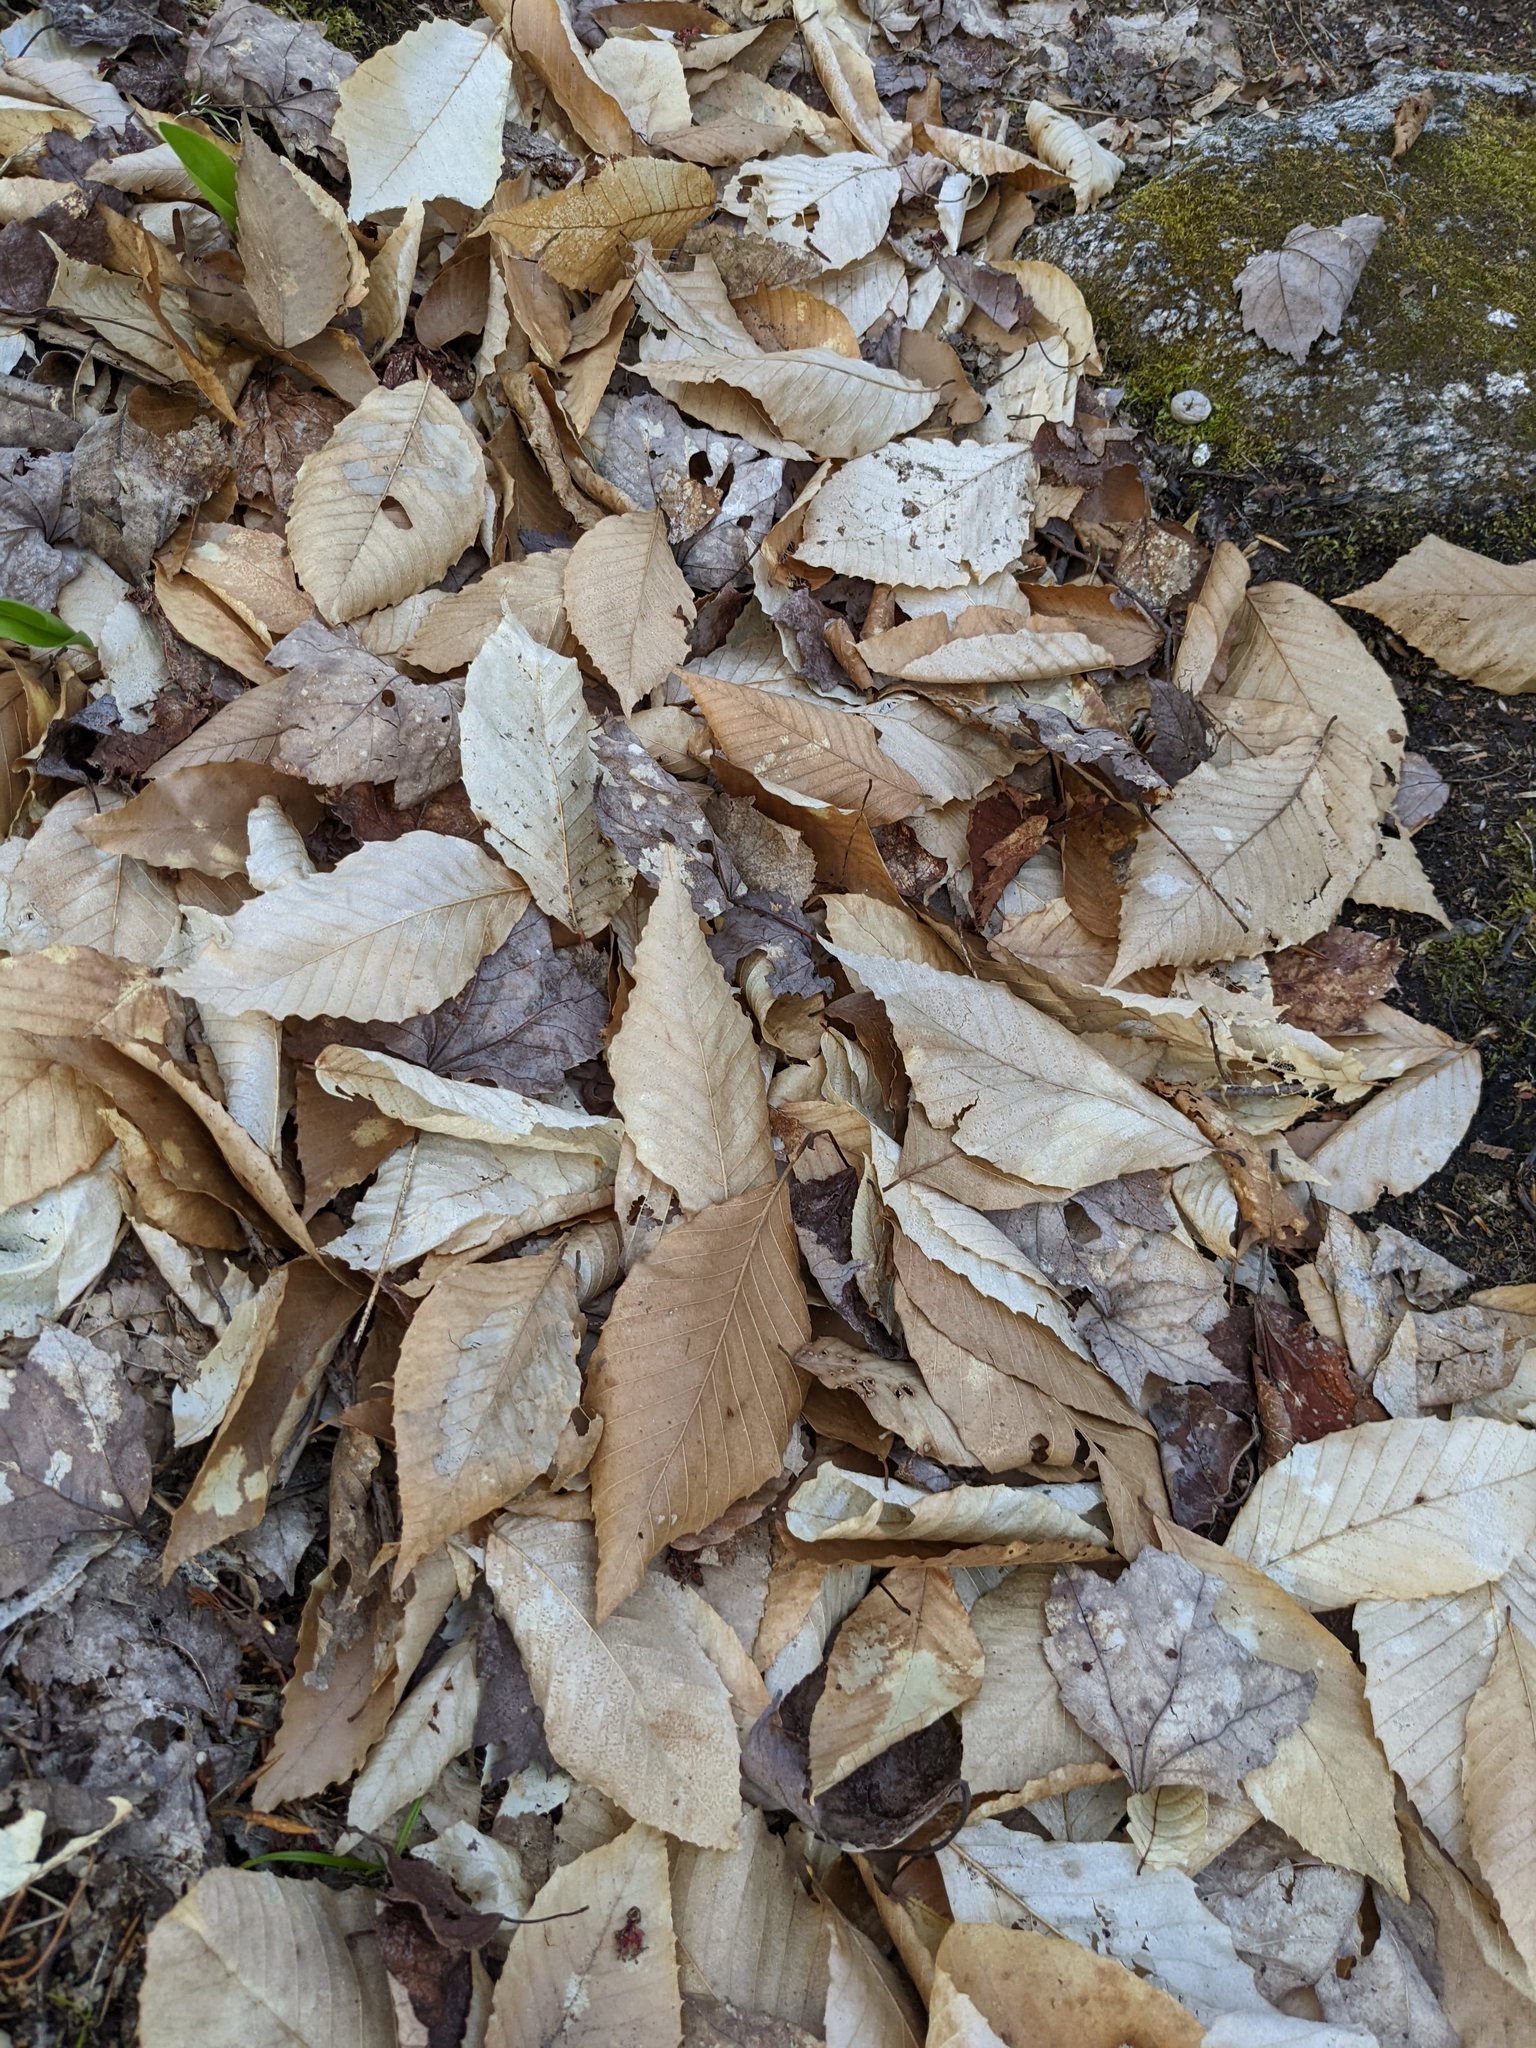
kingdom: Plantae
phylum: Tracheophyta
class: Magnoliopsida
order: Fagales
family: Fagaceae
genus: Fagus
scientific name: Fagus grandifolia
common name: American beech
